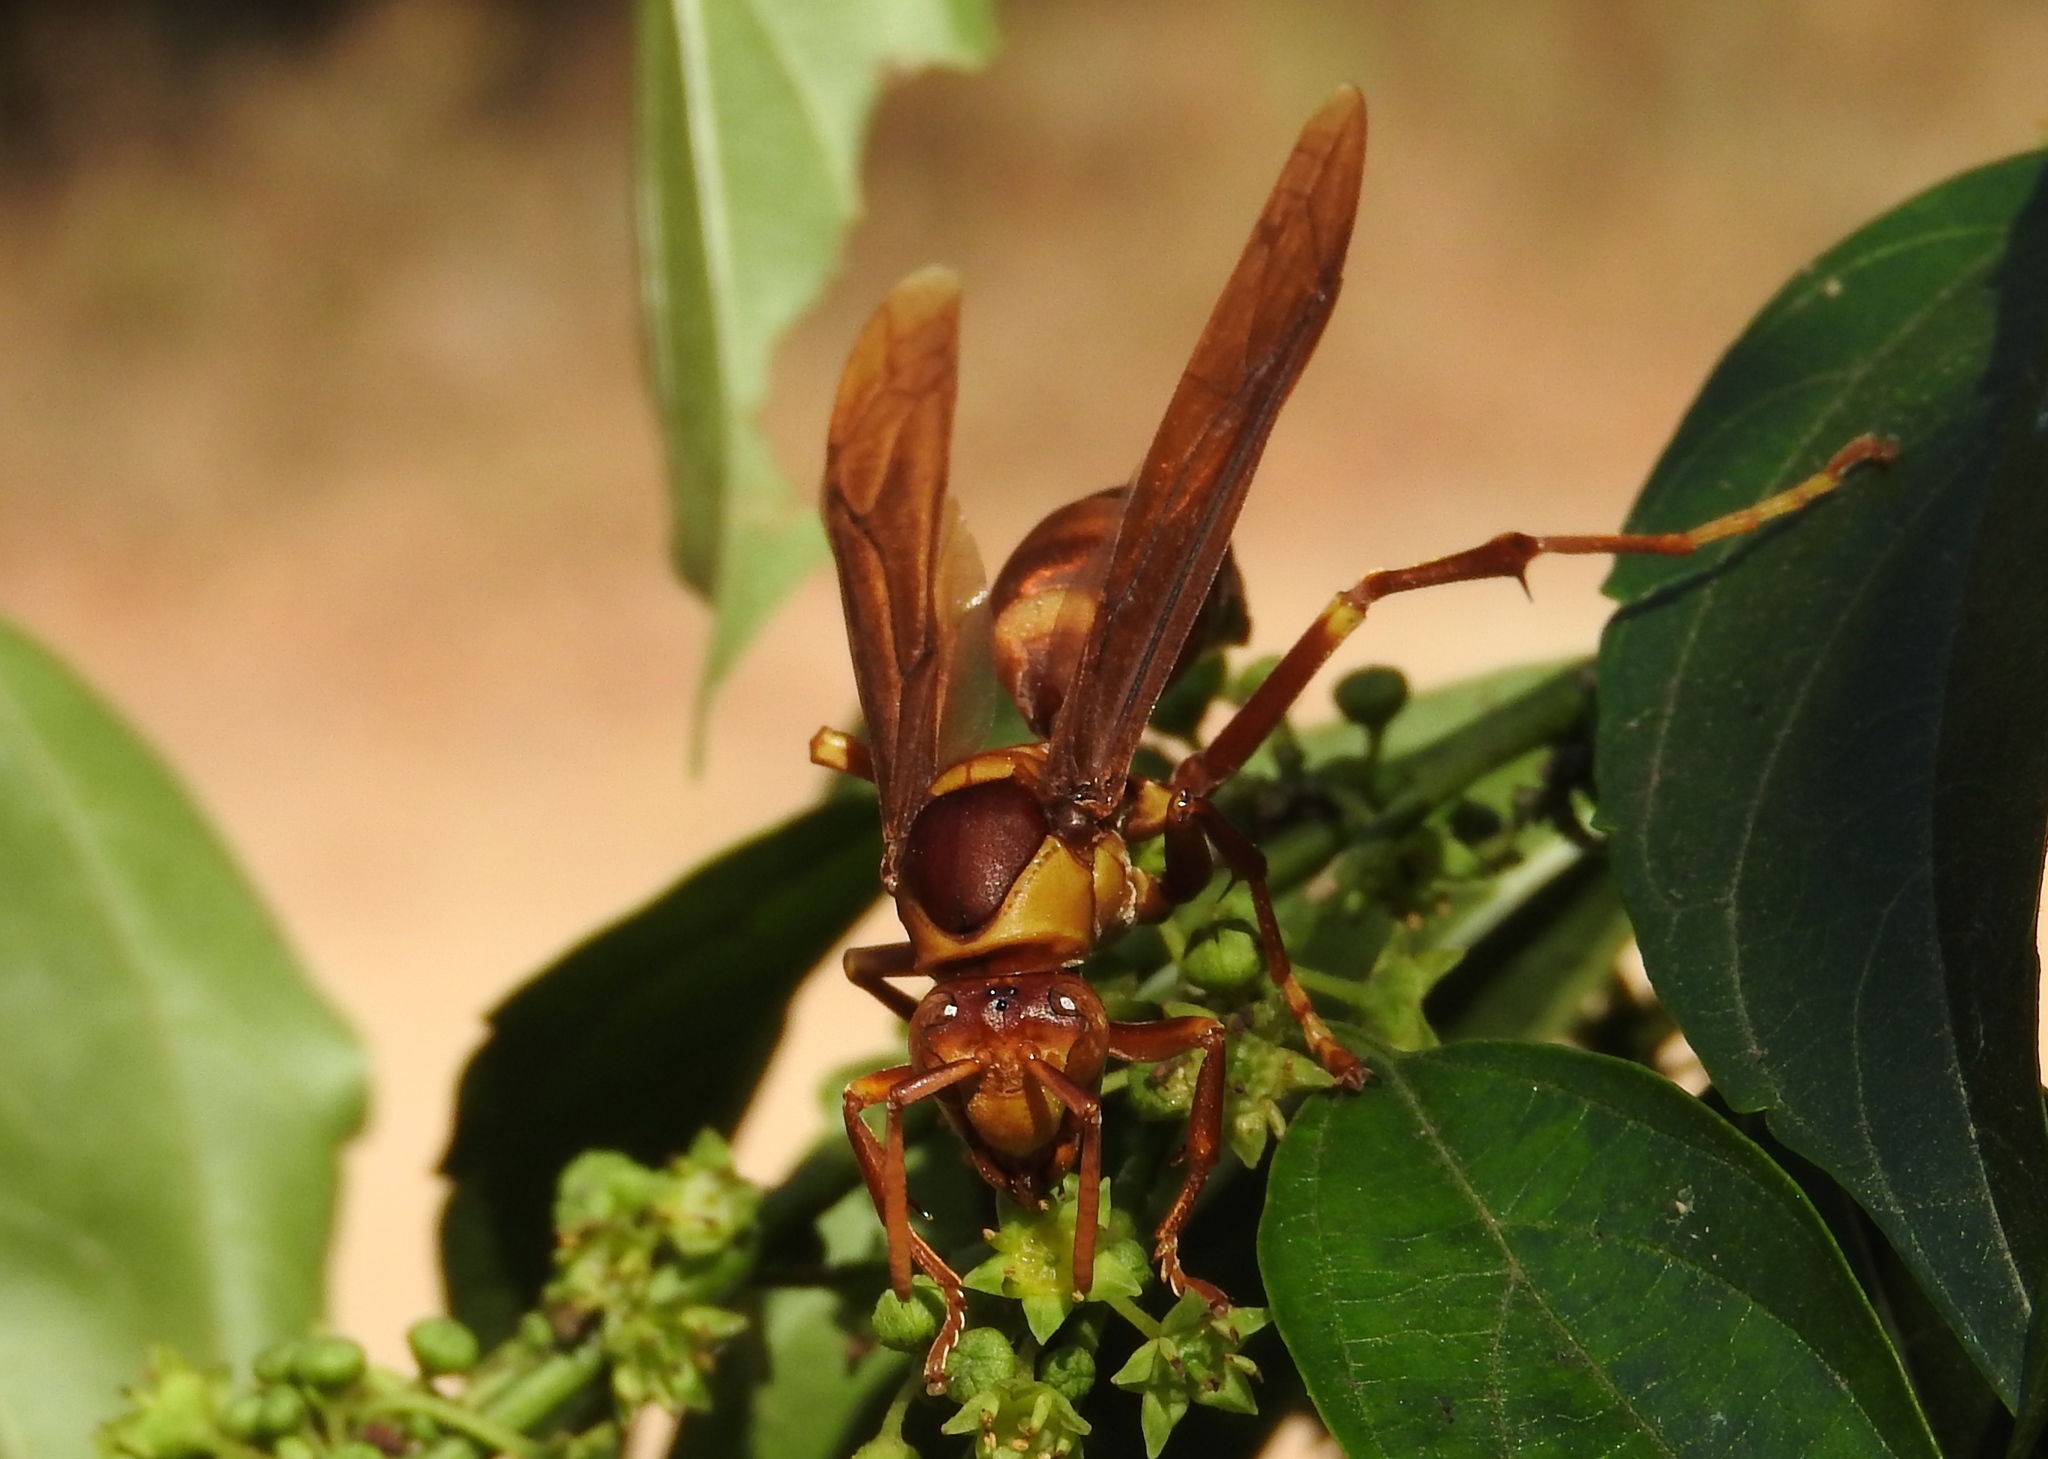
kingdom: Animalia
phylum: Arthropoda
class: Insecta
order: Hymenoptera
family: Eumenidae
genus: Polistes
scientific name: Polistes carnifex
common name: Paper wasp
